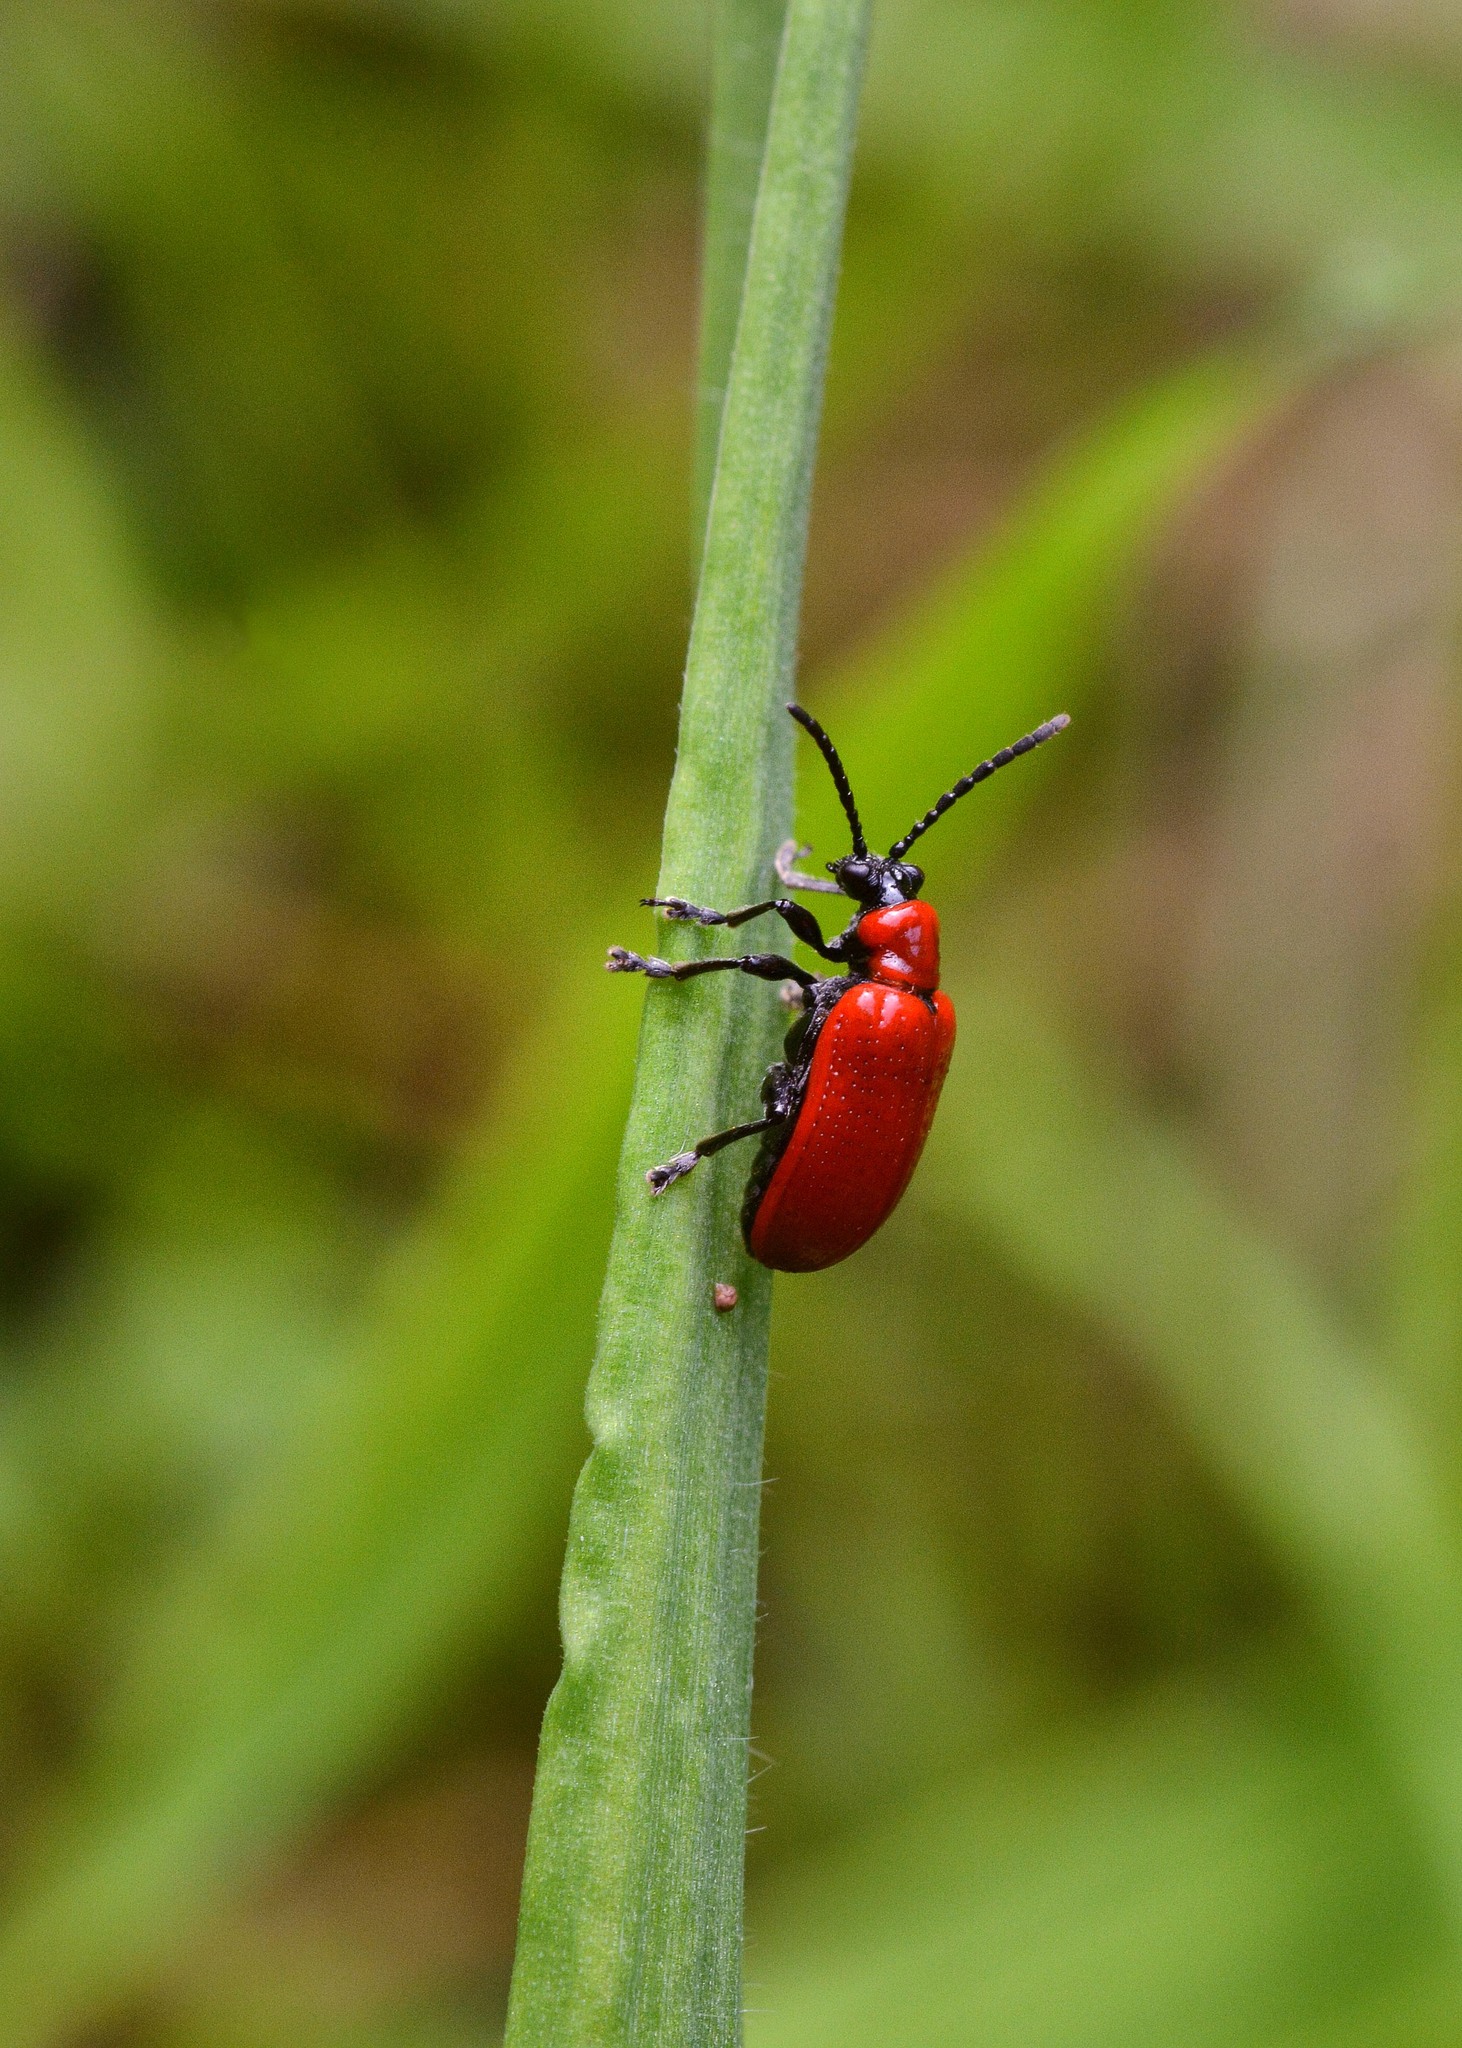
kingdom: Animalia
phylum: Arthropoda
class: Insecta
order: Coleoptera
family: Chrysomelidae
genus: Lilioceris
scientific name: Lilioceris lilii
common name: Lily beetle
